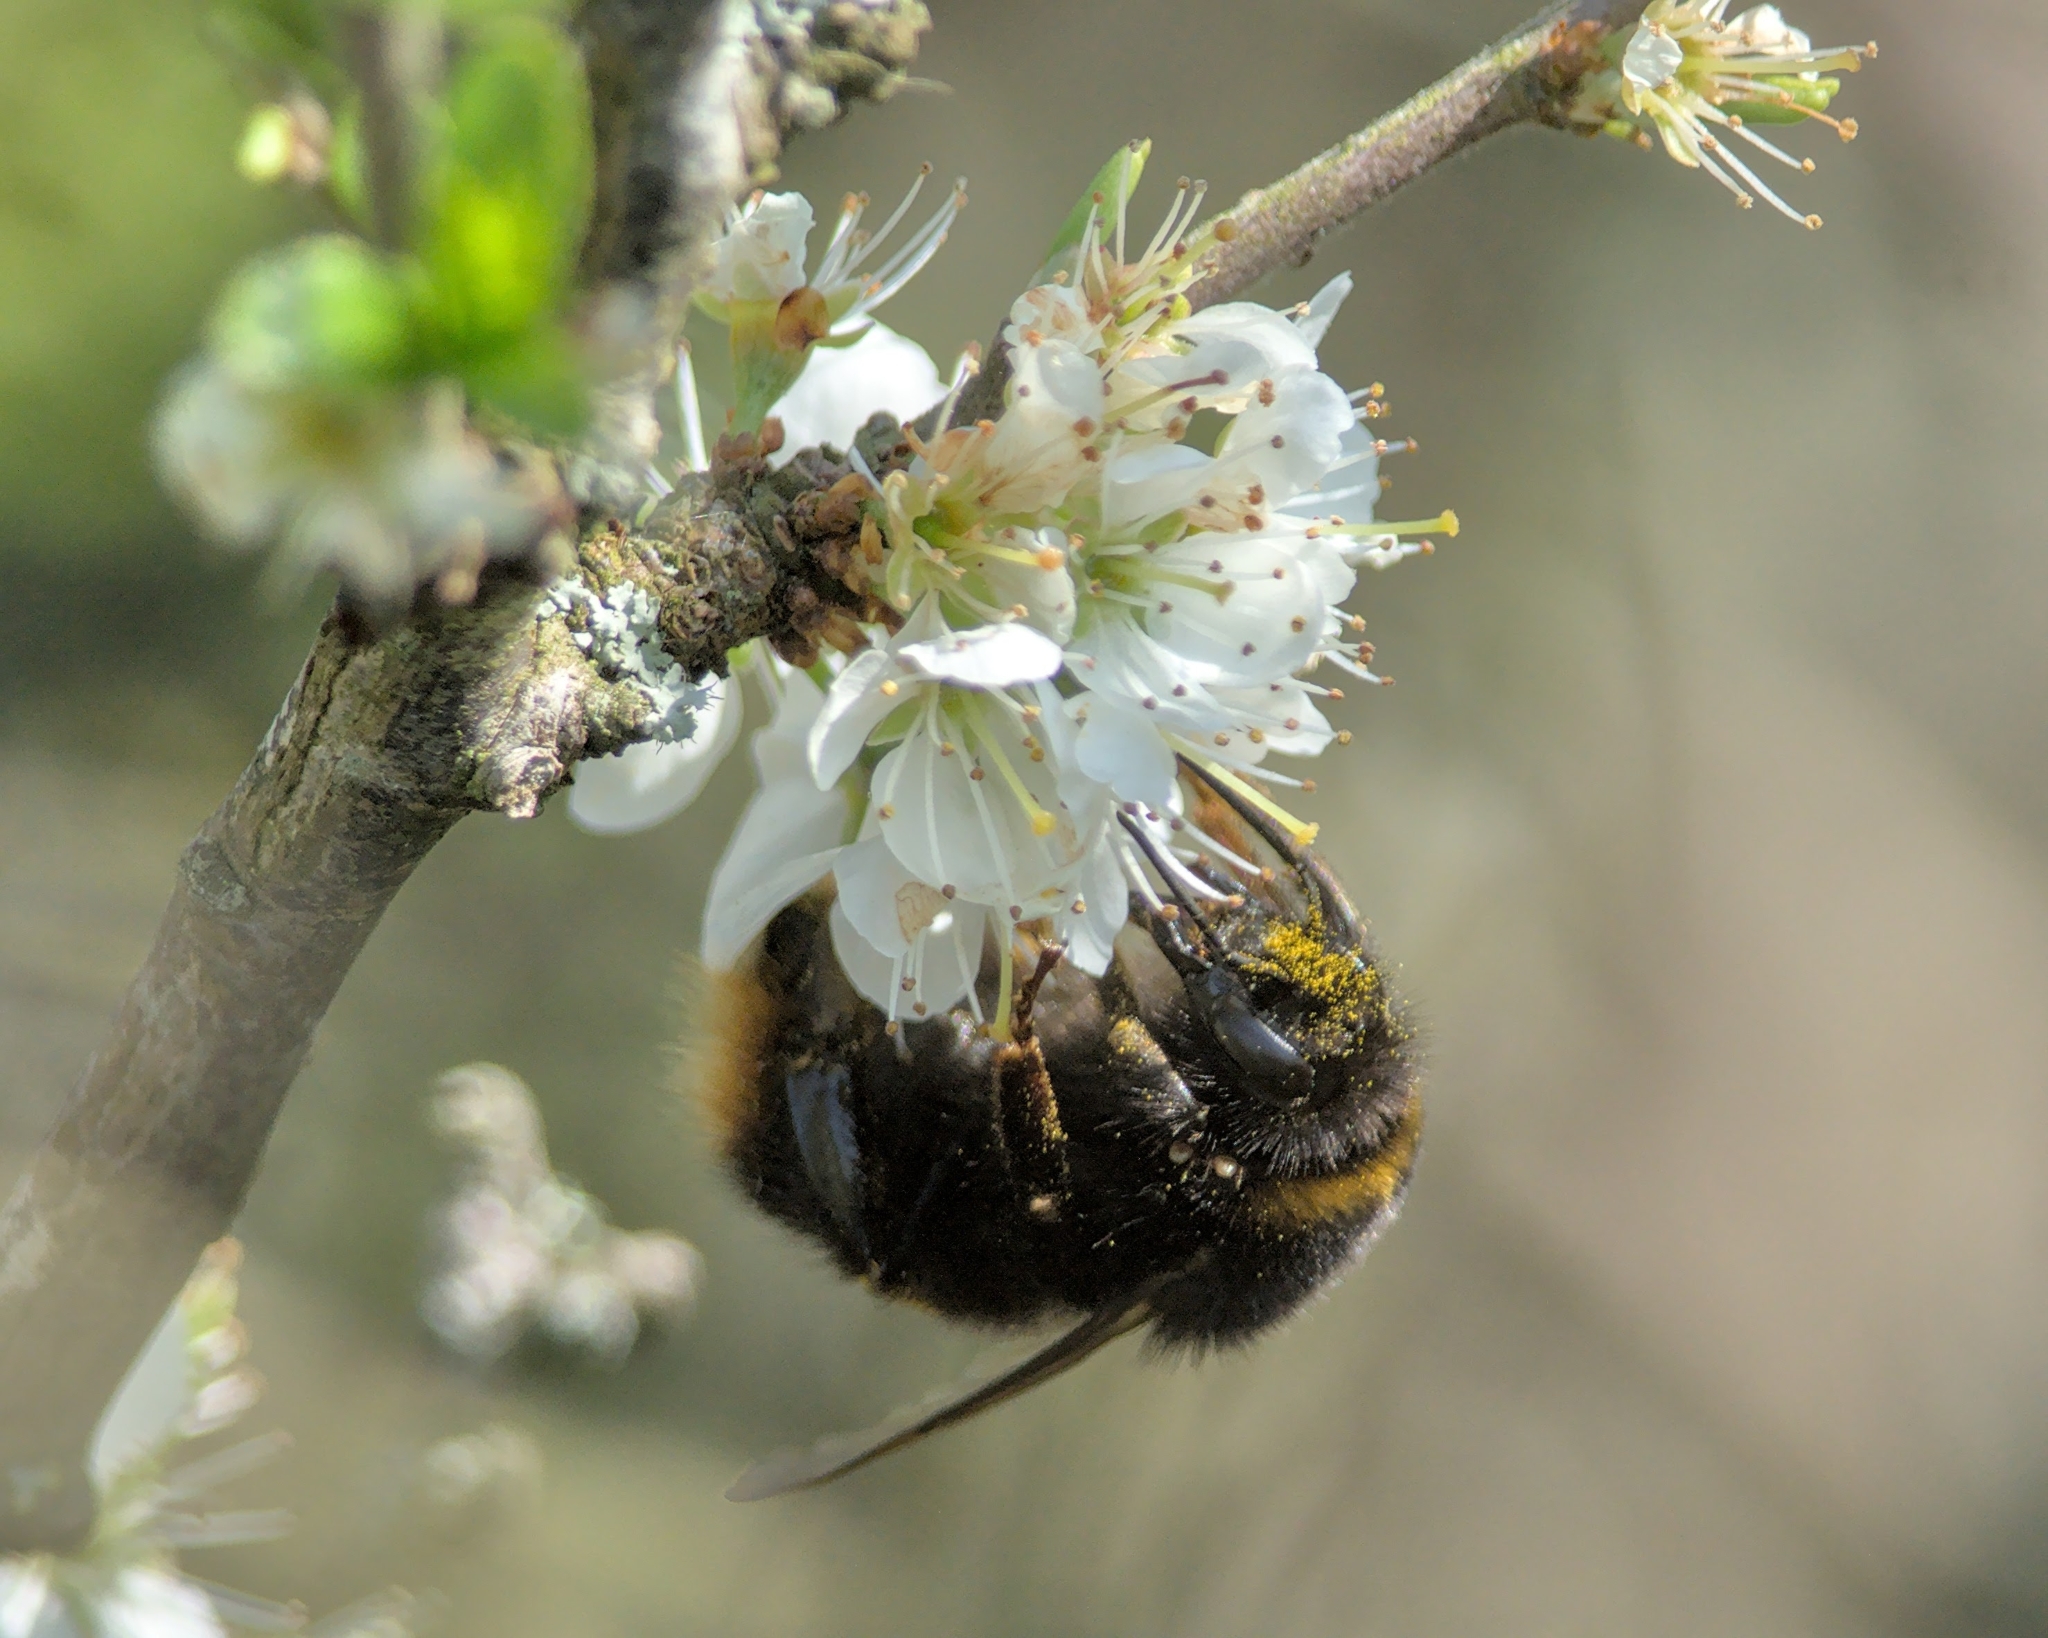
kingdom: Animalia
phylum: Arthropoda
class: Insecta
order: Hymenoptera
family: Apidae
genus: Bombus
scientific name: Bombus terrestris
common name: Buff-tailed bumblebee
